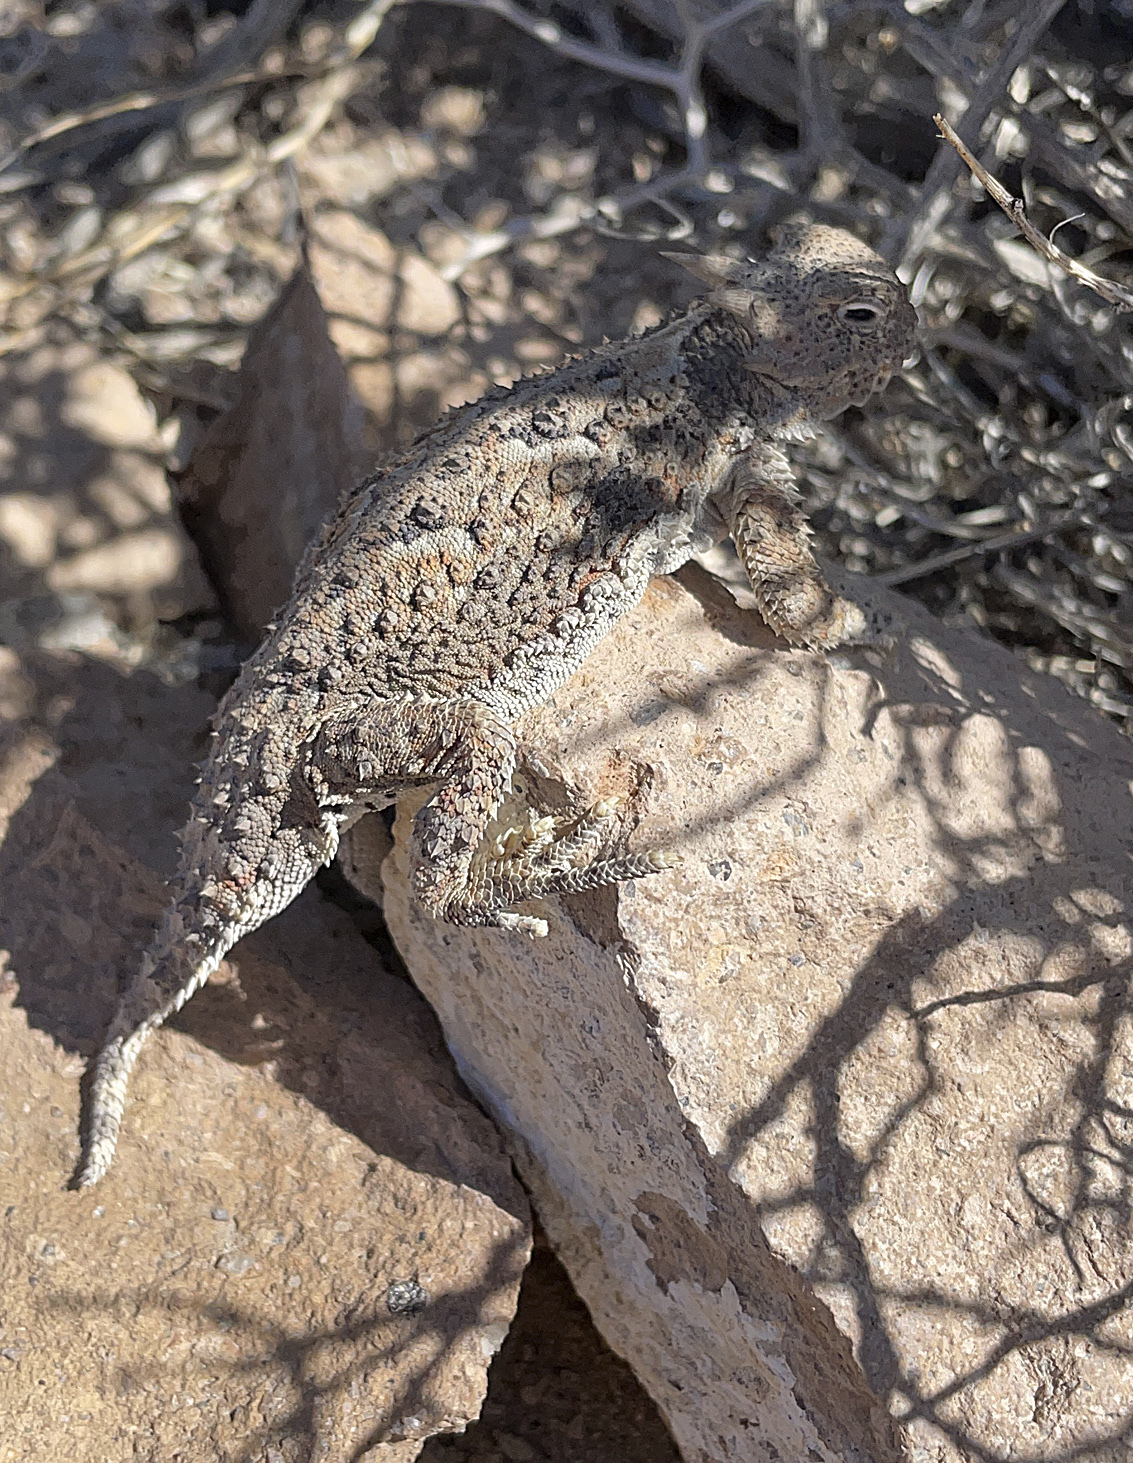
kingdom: Animalia
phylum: Chordata
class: Squamata
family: Phrynosomatidae
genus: Phrynosoma
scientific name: Phrynosoma platyrhinos
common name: Desert horned lizard
